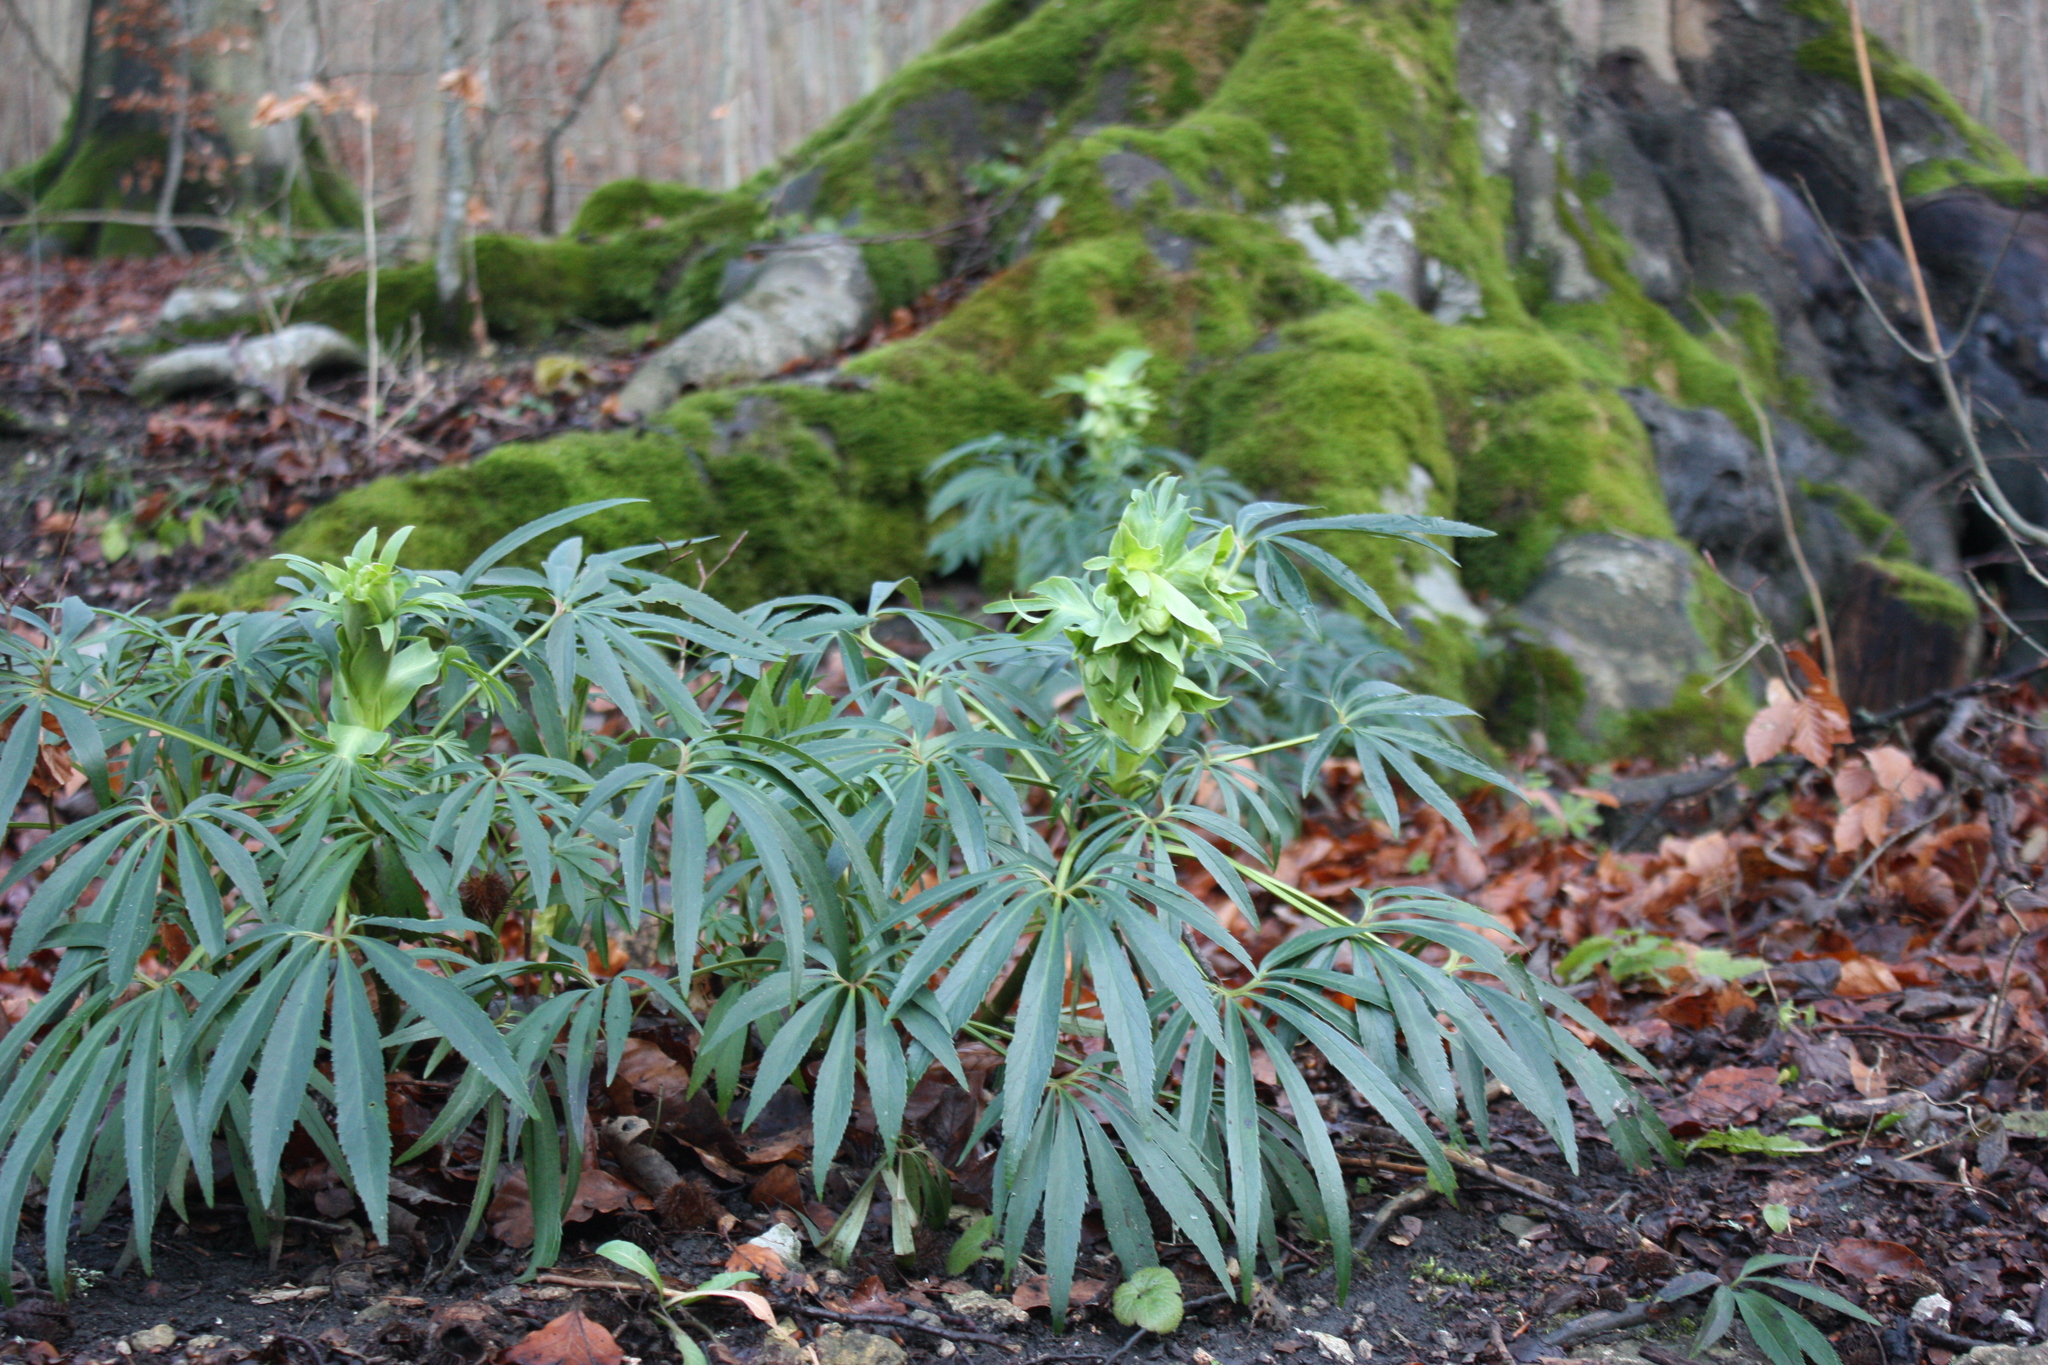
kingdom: Plantae
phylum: Tracheophyta
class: Magnoliopsida
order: Ranunculales
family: Ranunculaceae
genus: Helleborus
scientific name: Helleborus foetidus
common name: Stinking hellebore
